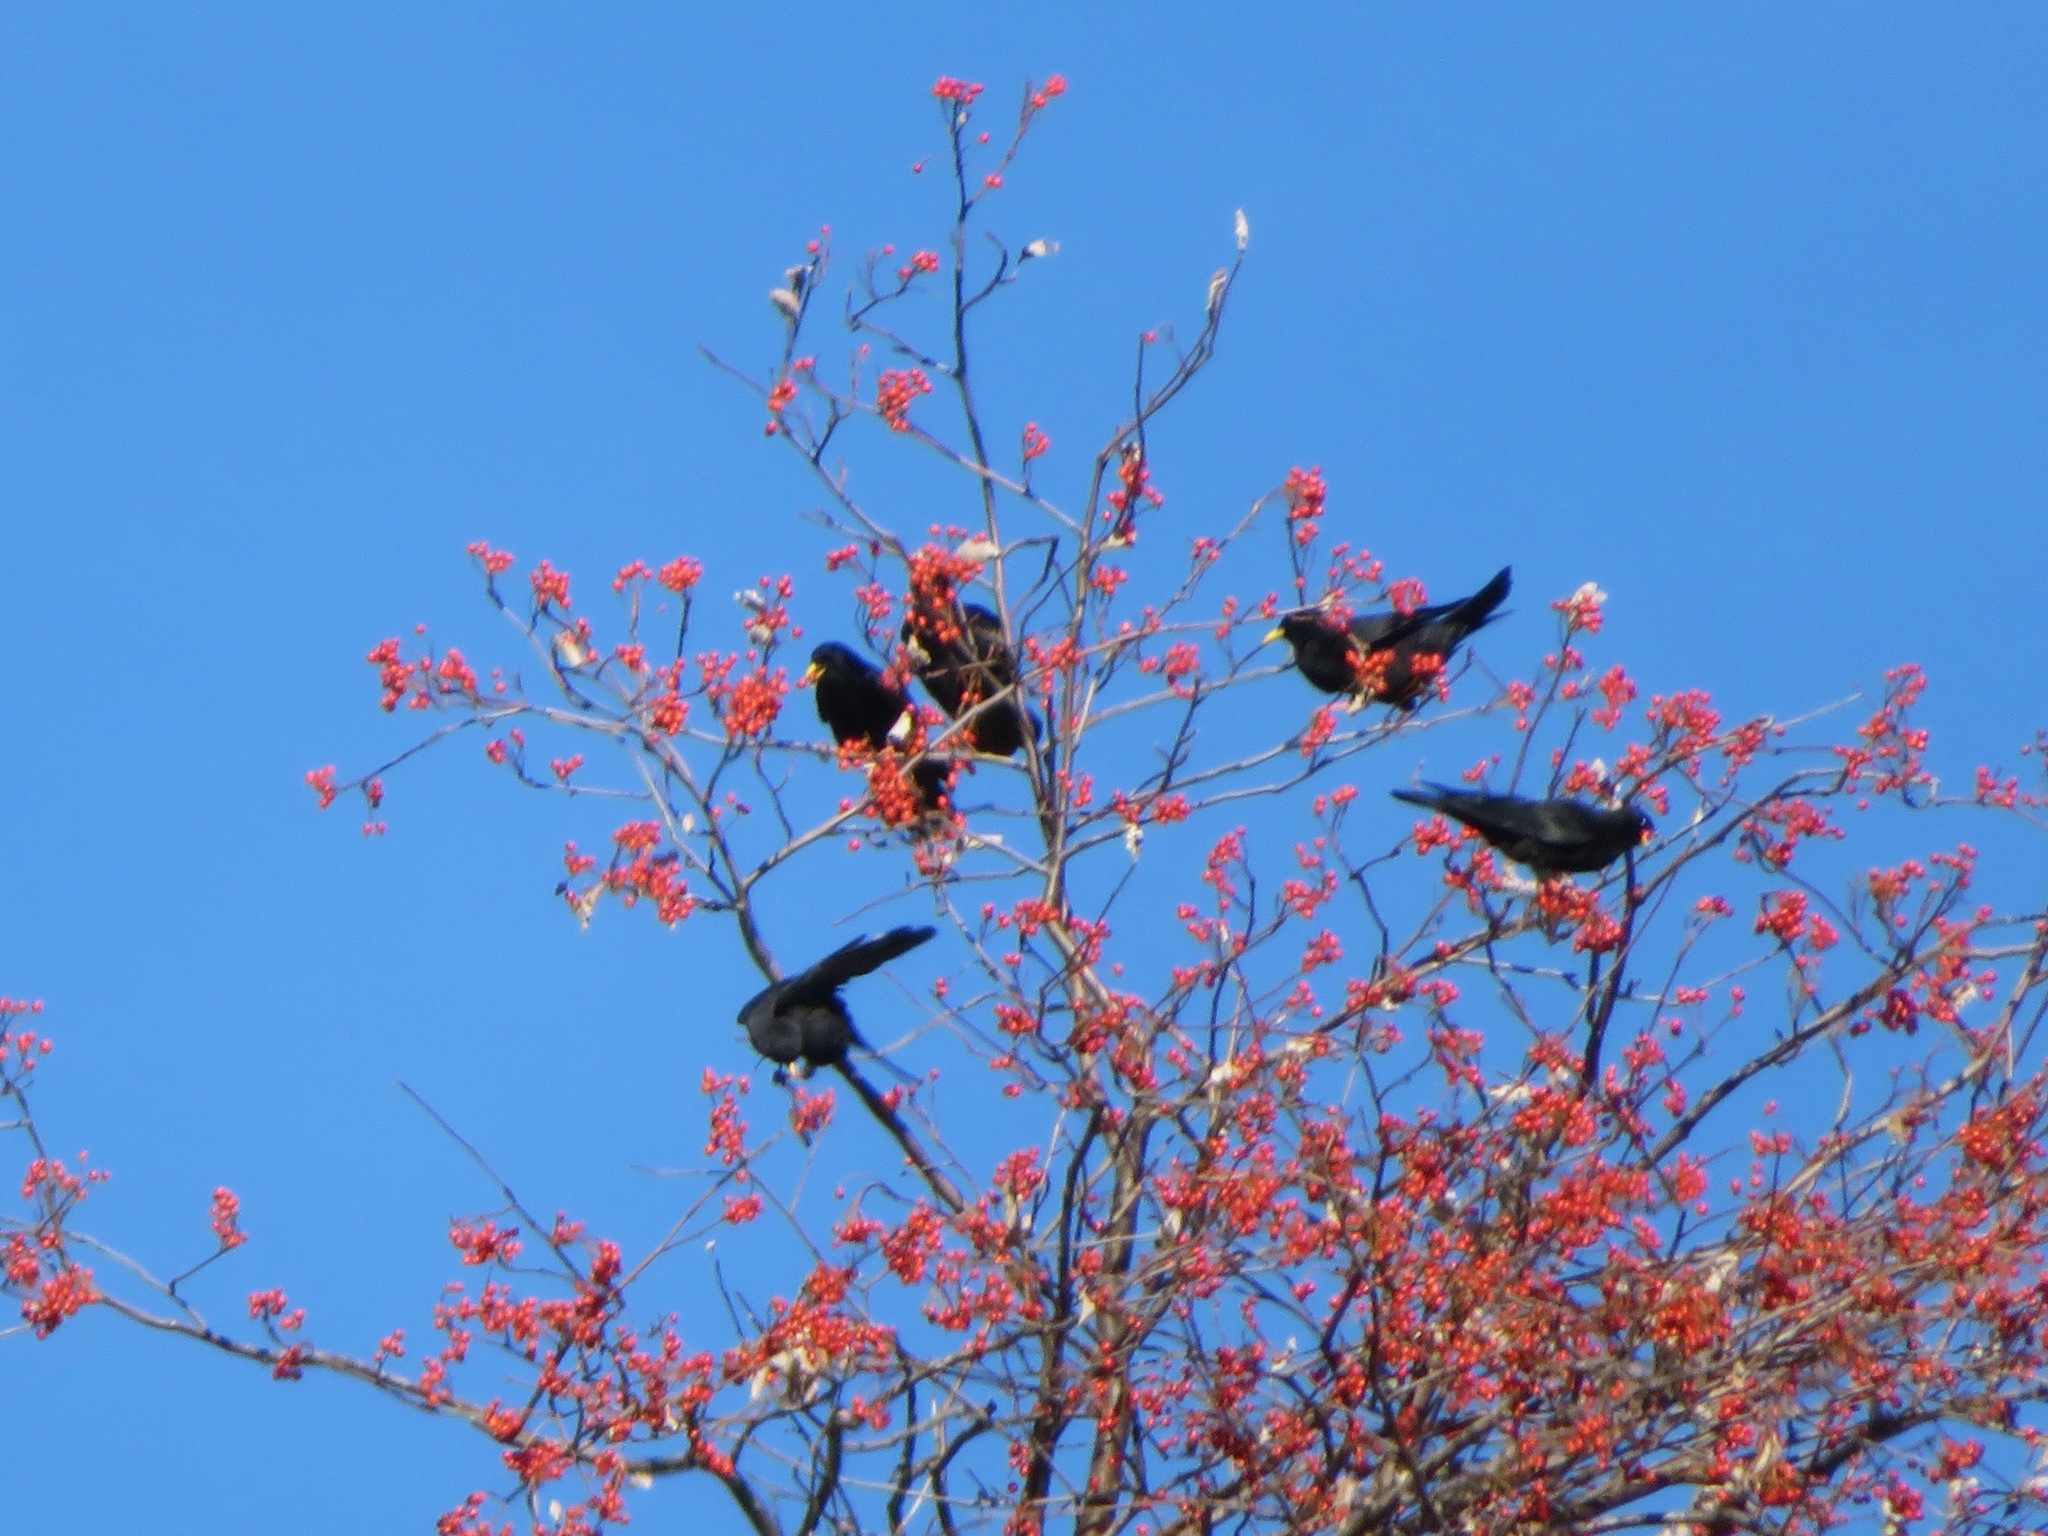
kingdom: Animalia
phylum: Chordata
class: Aves
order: Passeriformes
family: Corvidae
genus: Pyrrhocorax
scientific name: Pyrrhocorax graculus
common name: Alpine chough
